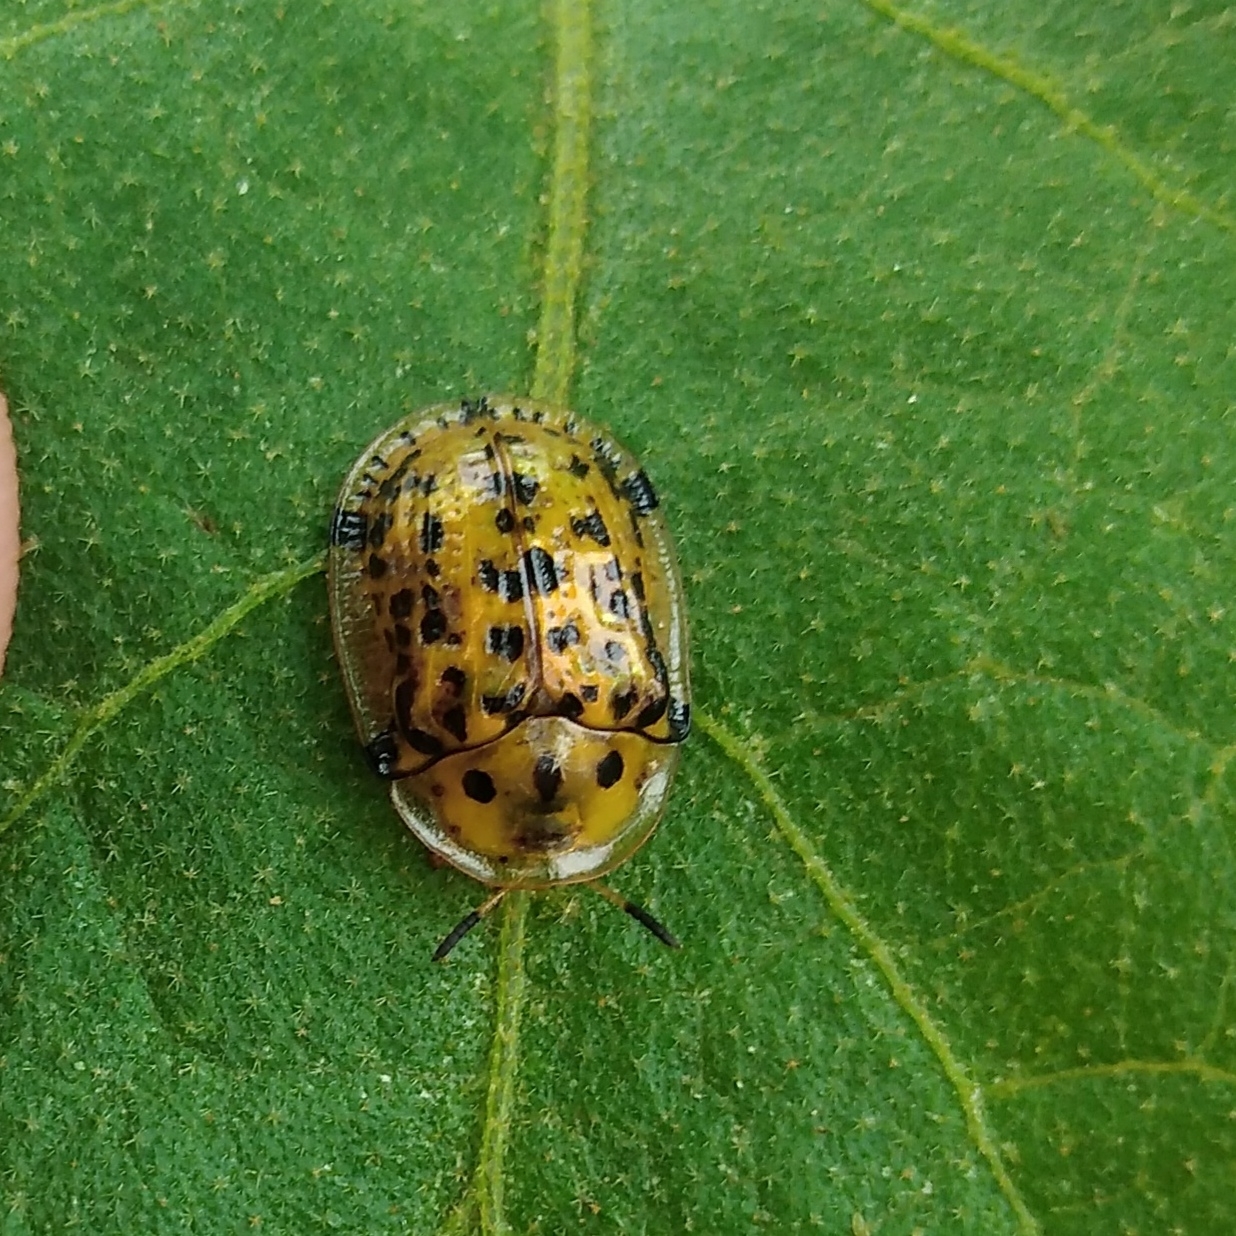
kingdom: Animalia
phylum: Arthropoda
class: Insecta
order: Coleoptera
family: Chrysomelidae
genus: Conchyloctenia
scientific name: Conchyloctenia tripuncticollis
